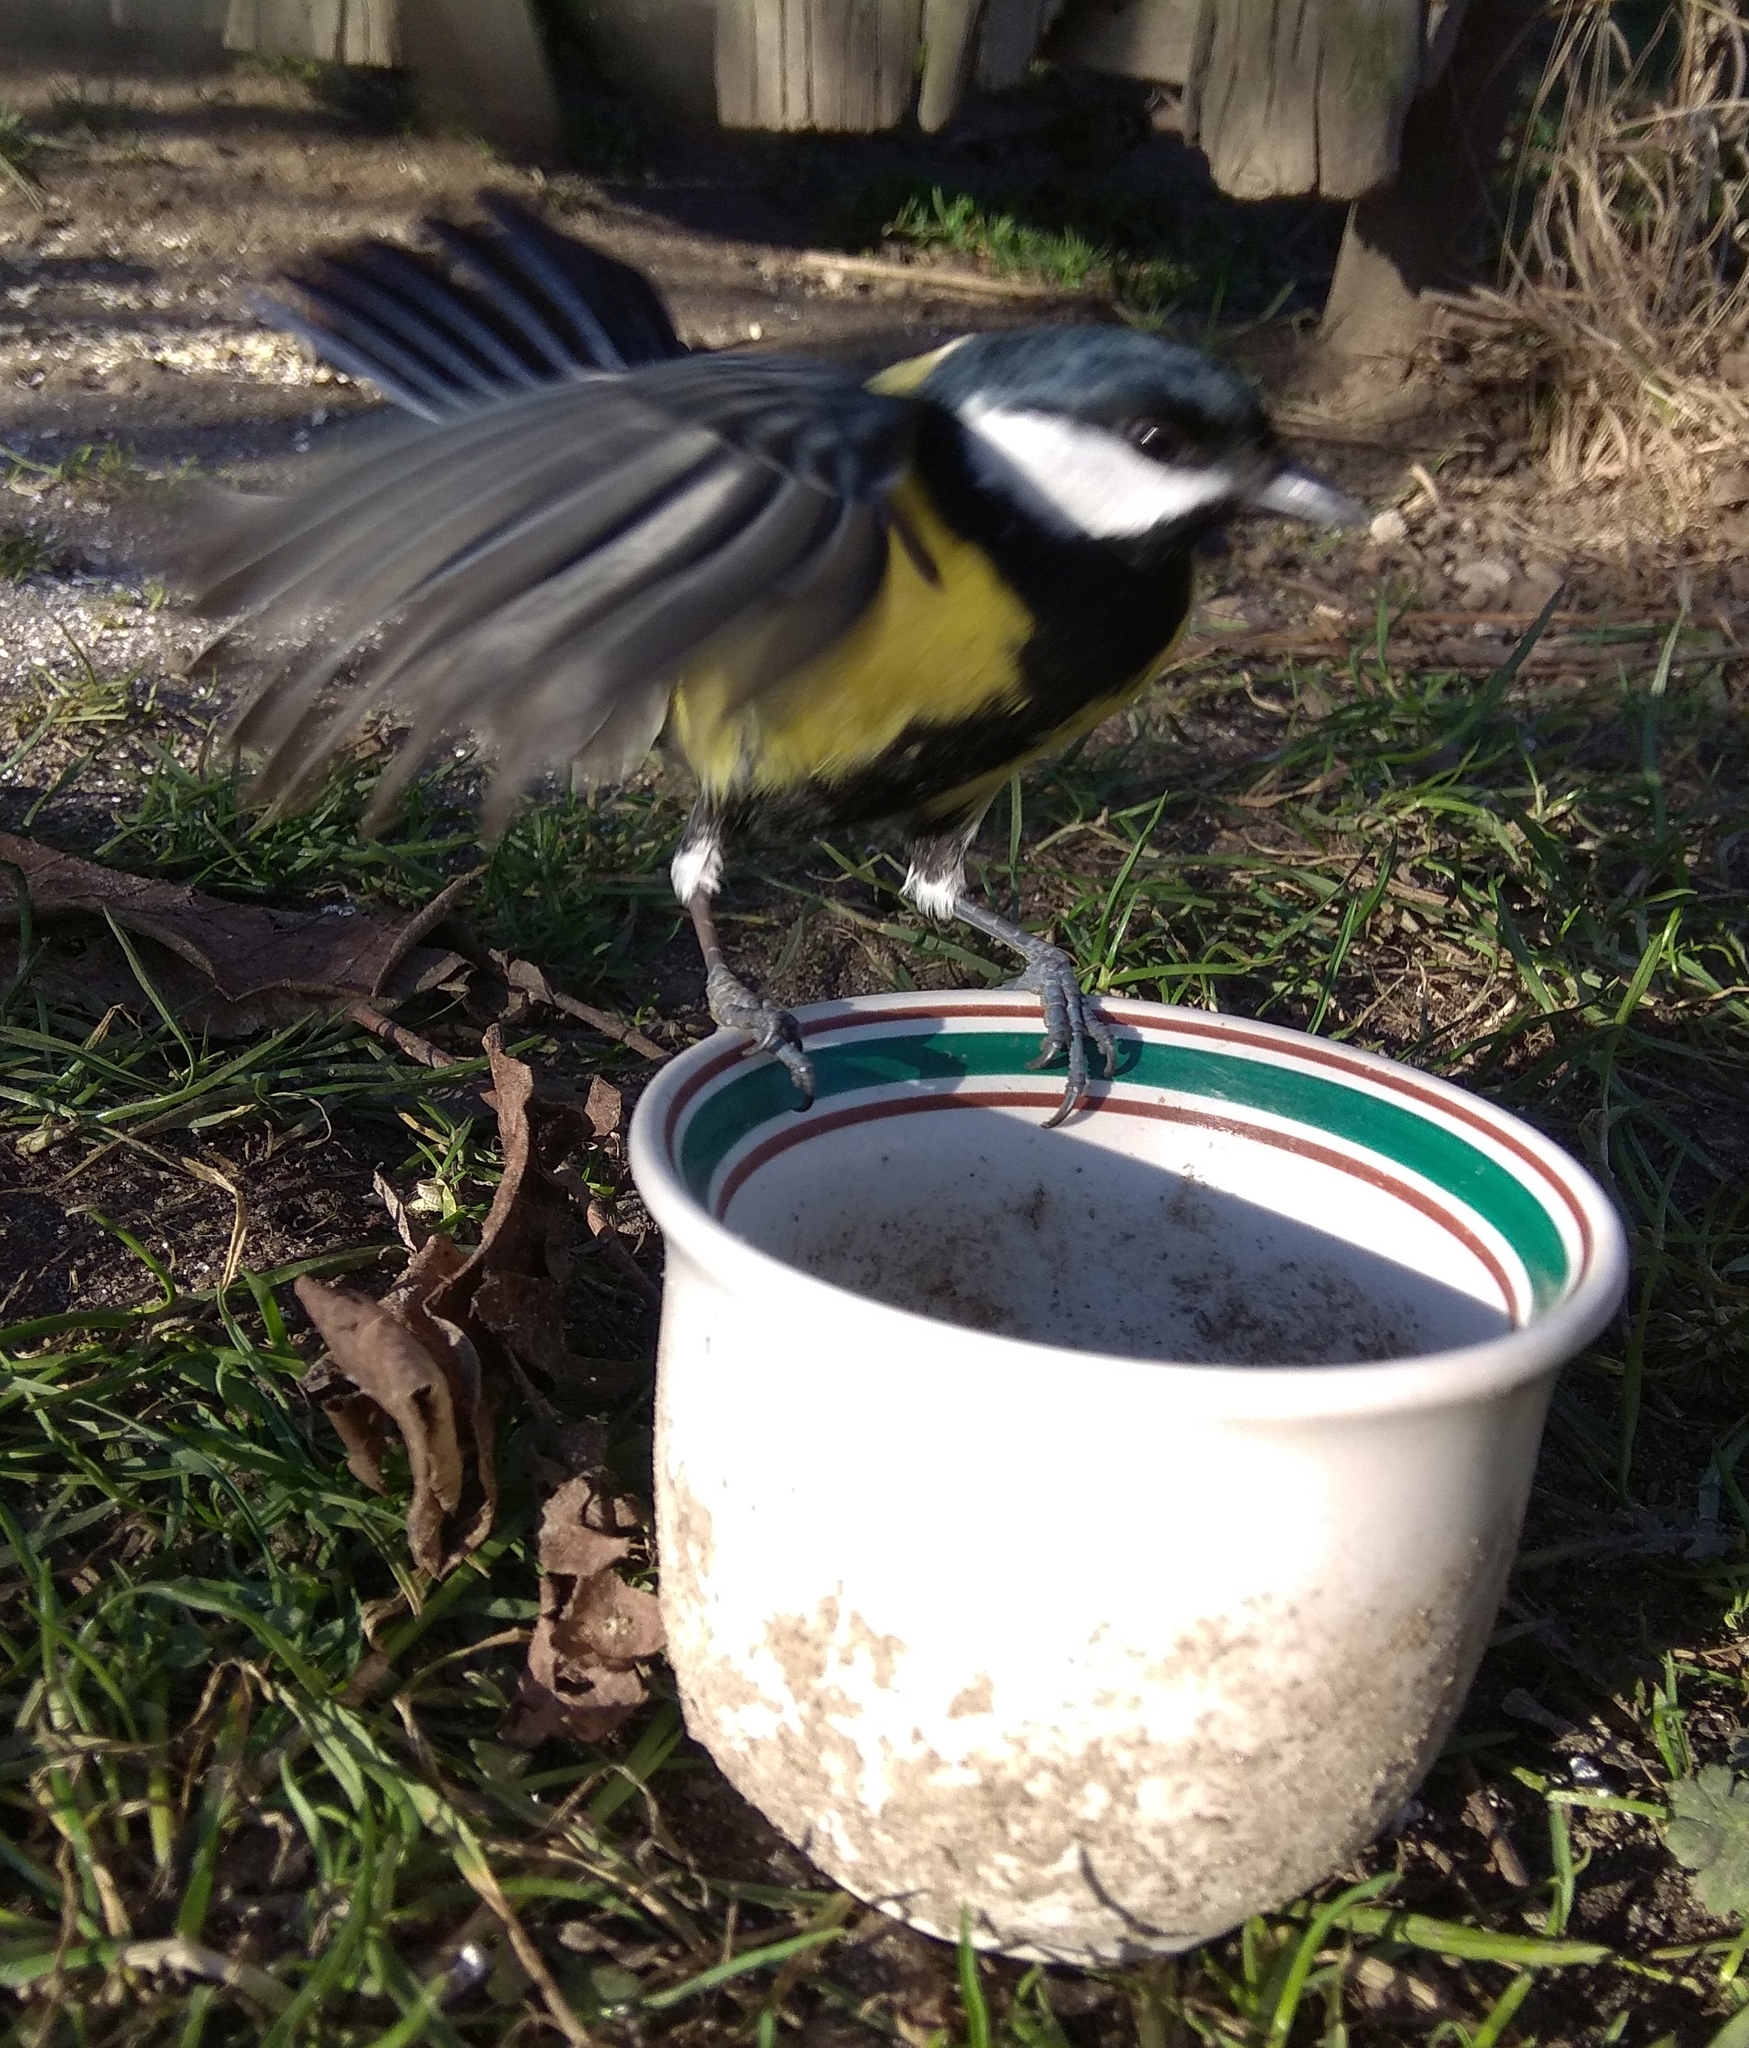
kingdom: Animalia
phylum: Chordata
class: Aves
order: Passeriformes
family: Paridae
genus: Parus
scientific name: Parus major
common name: Great tit
